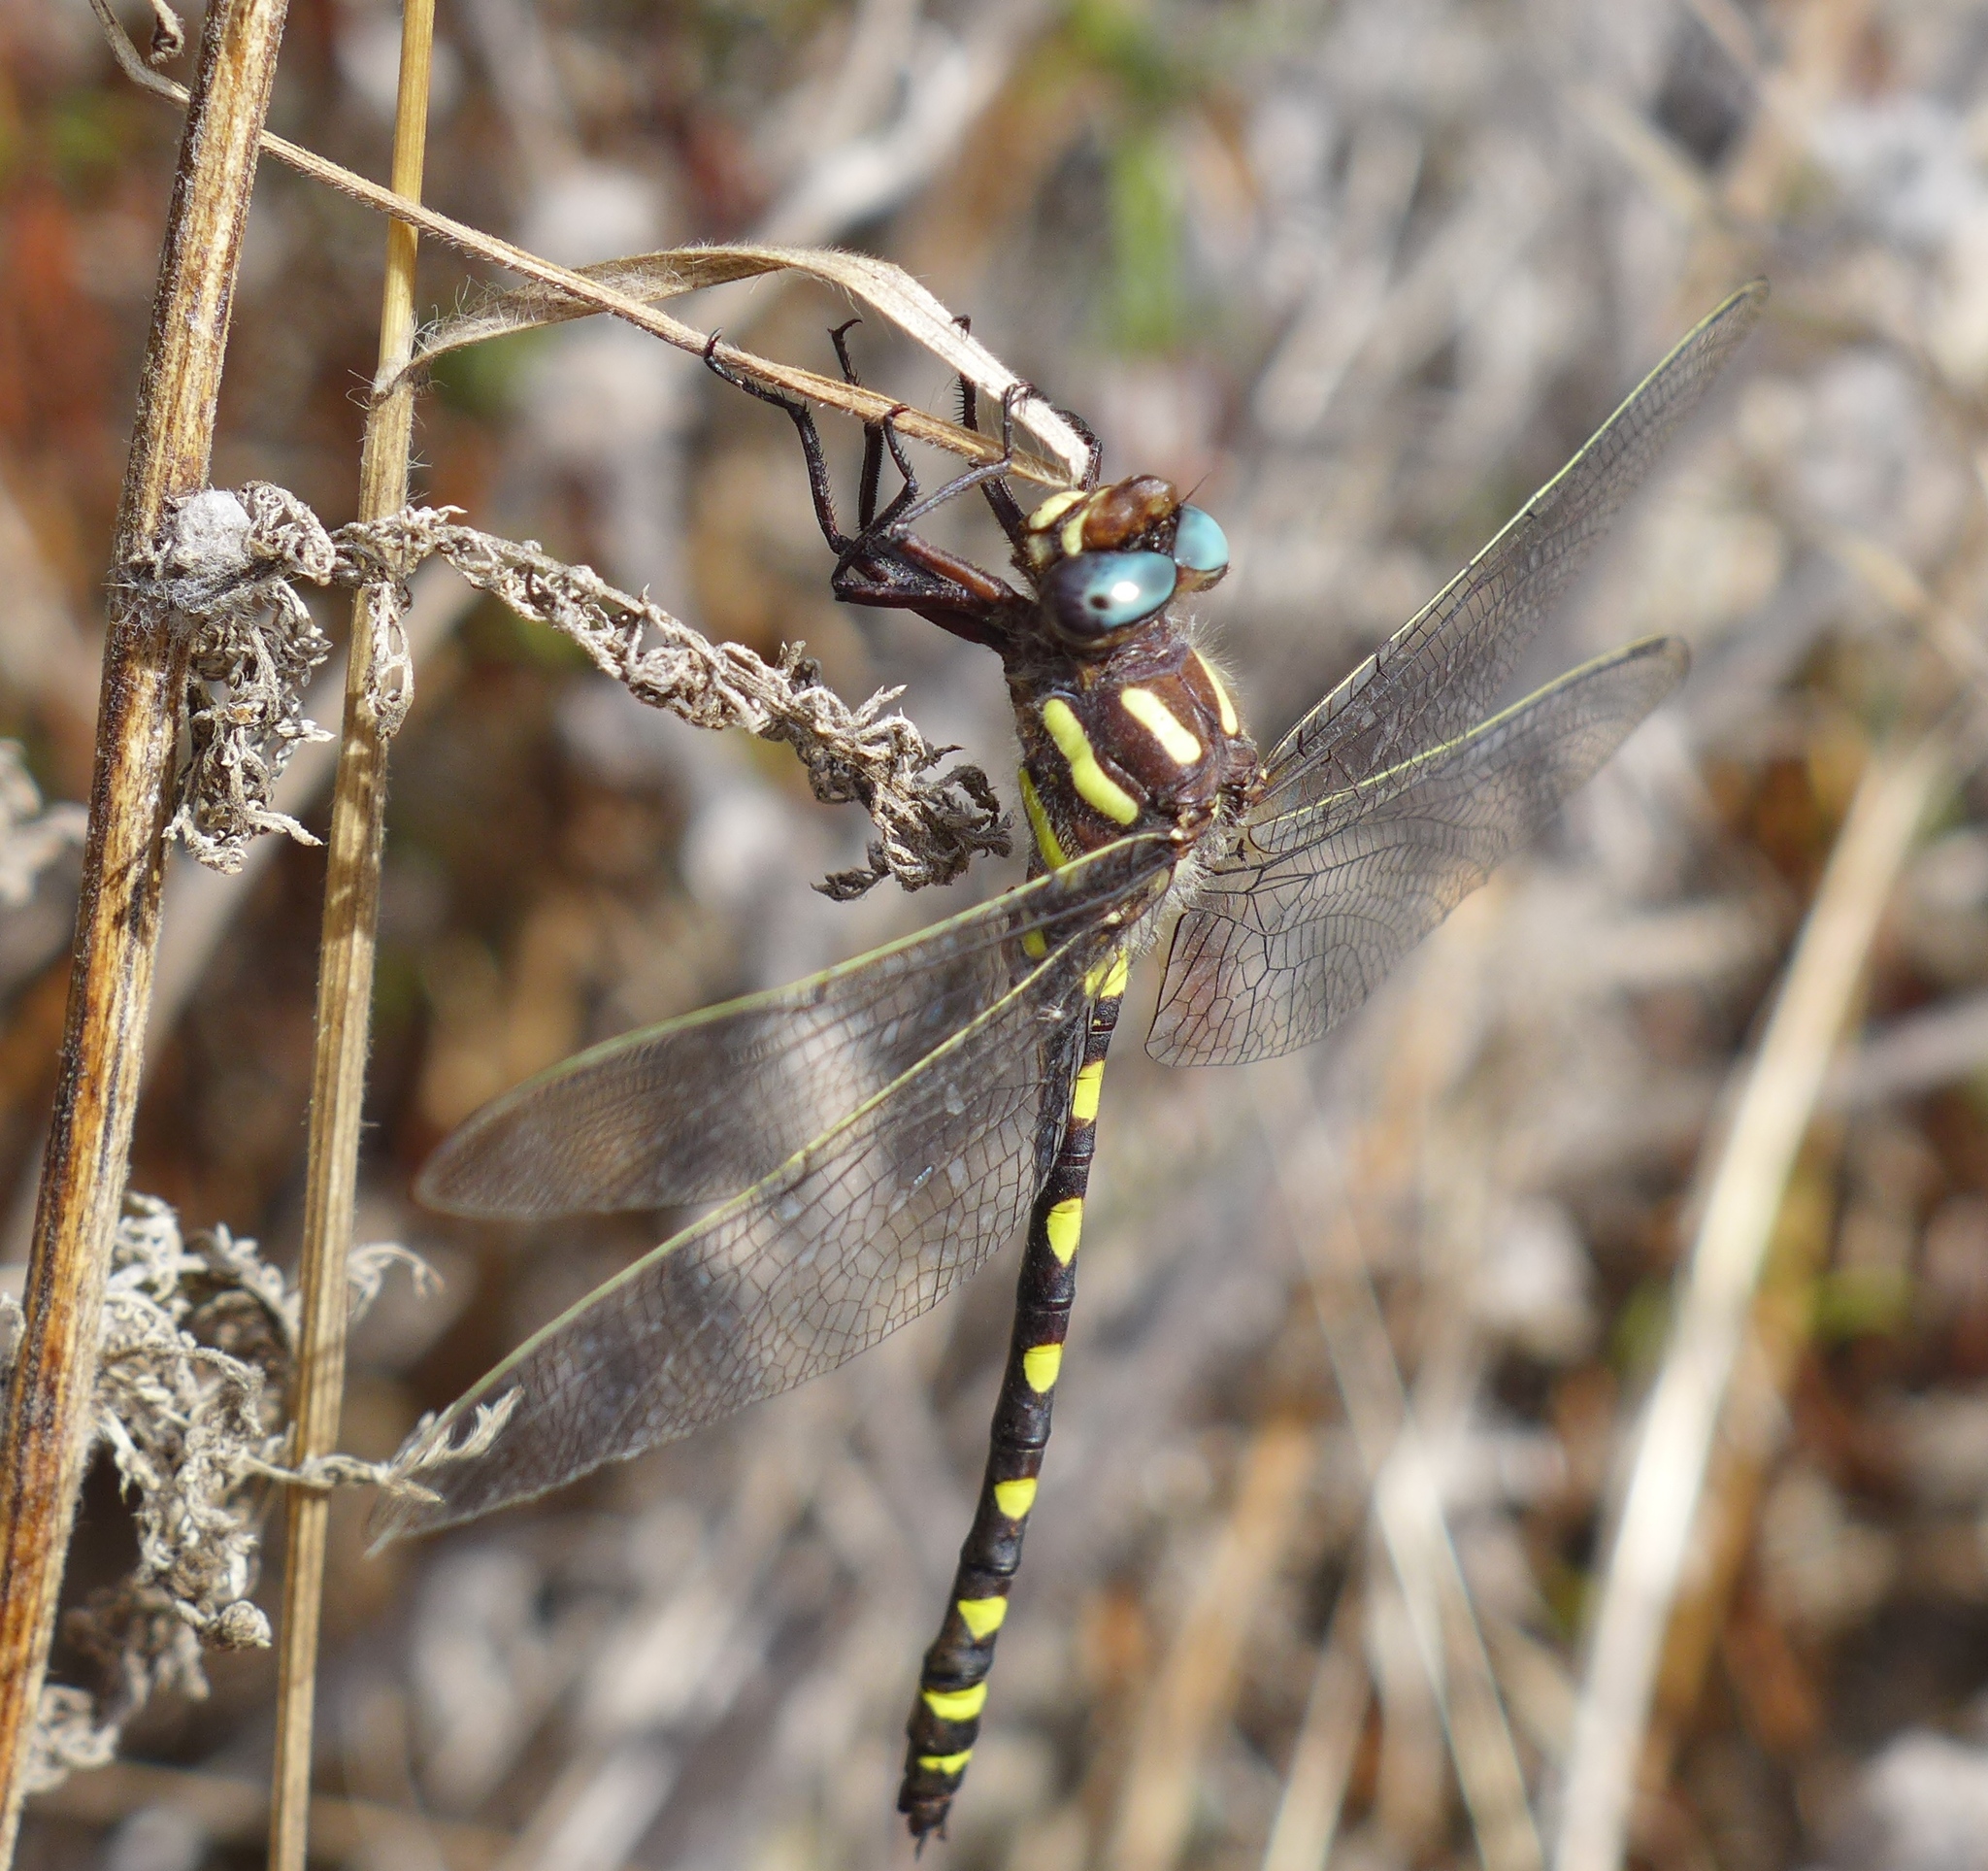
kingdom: Animalia
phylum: Arthropoda
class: Insecta
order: Odonata
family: Cordulegastridae
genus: Cordulegaster
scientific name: Cordulegaster dorsalis
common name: Pacific spiketail
